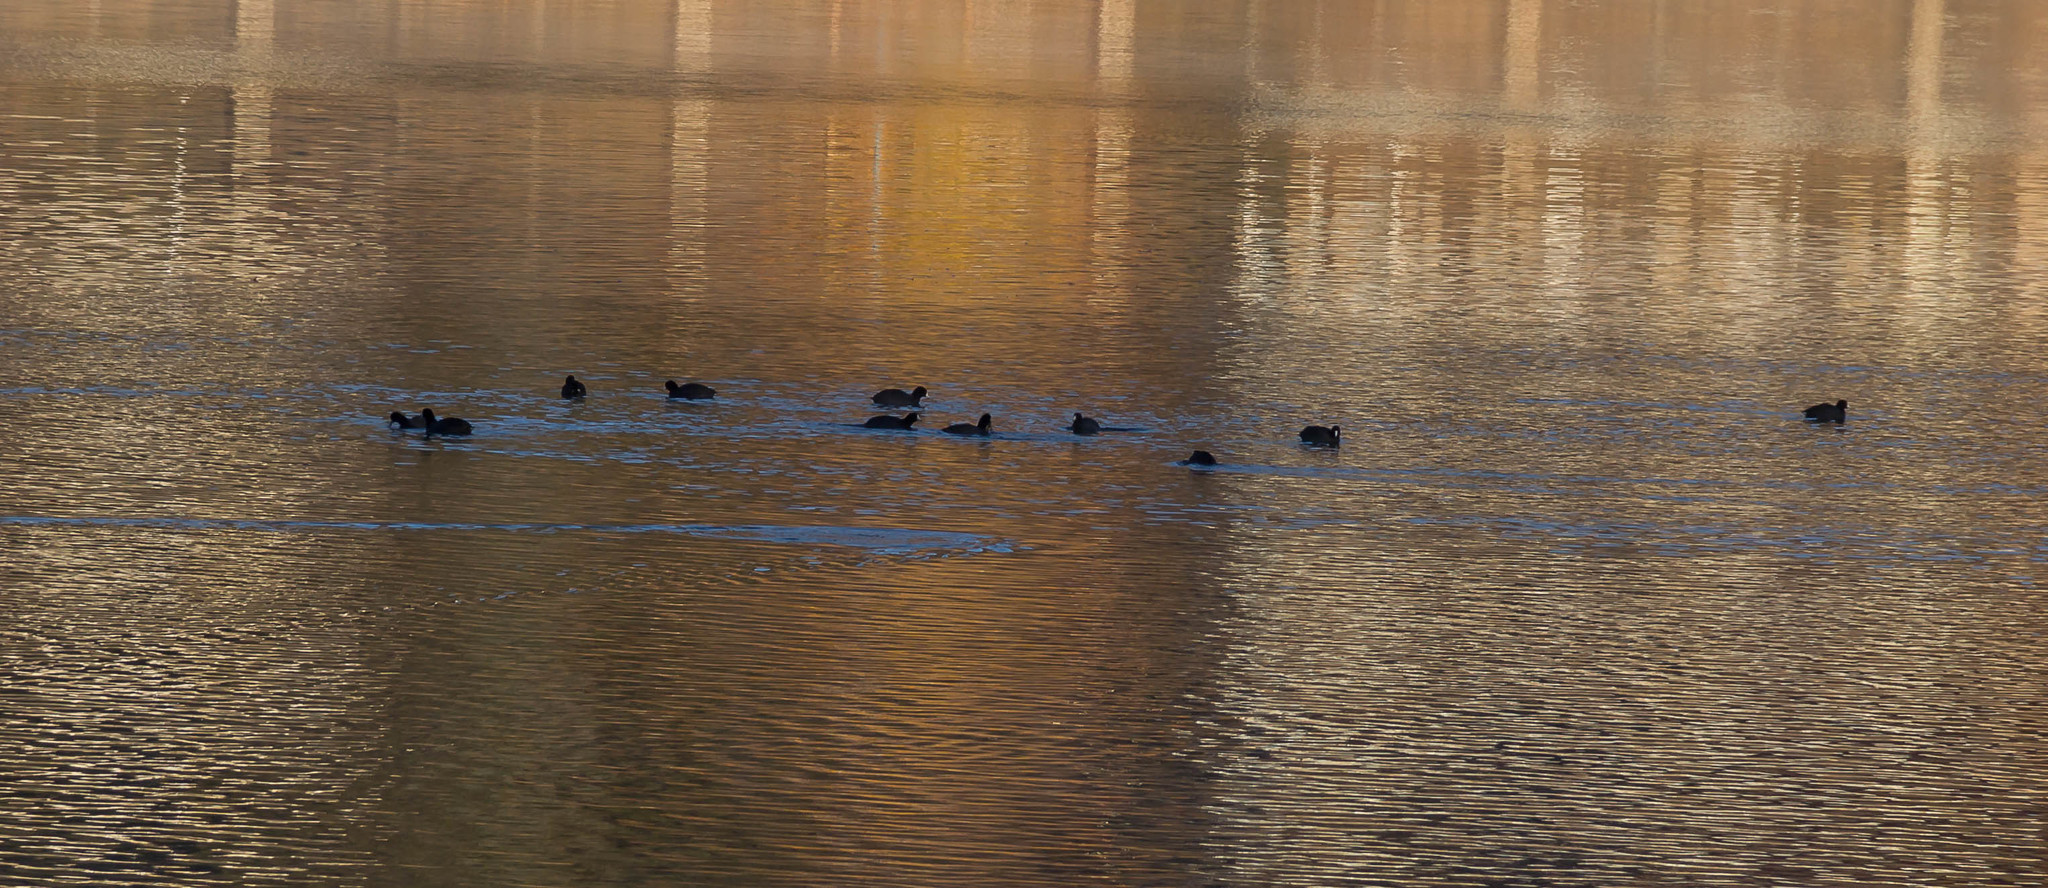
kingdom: Animalia
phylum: Chordata
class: Aves
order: Gruiformes
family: Rallidae
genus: Fulica
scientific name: Fulica americana
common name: American coot
